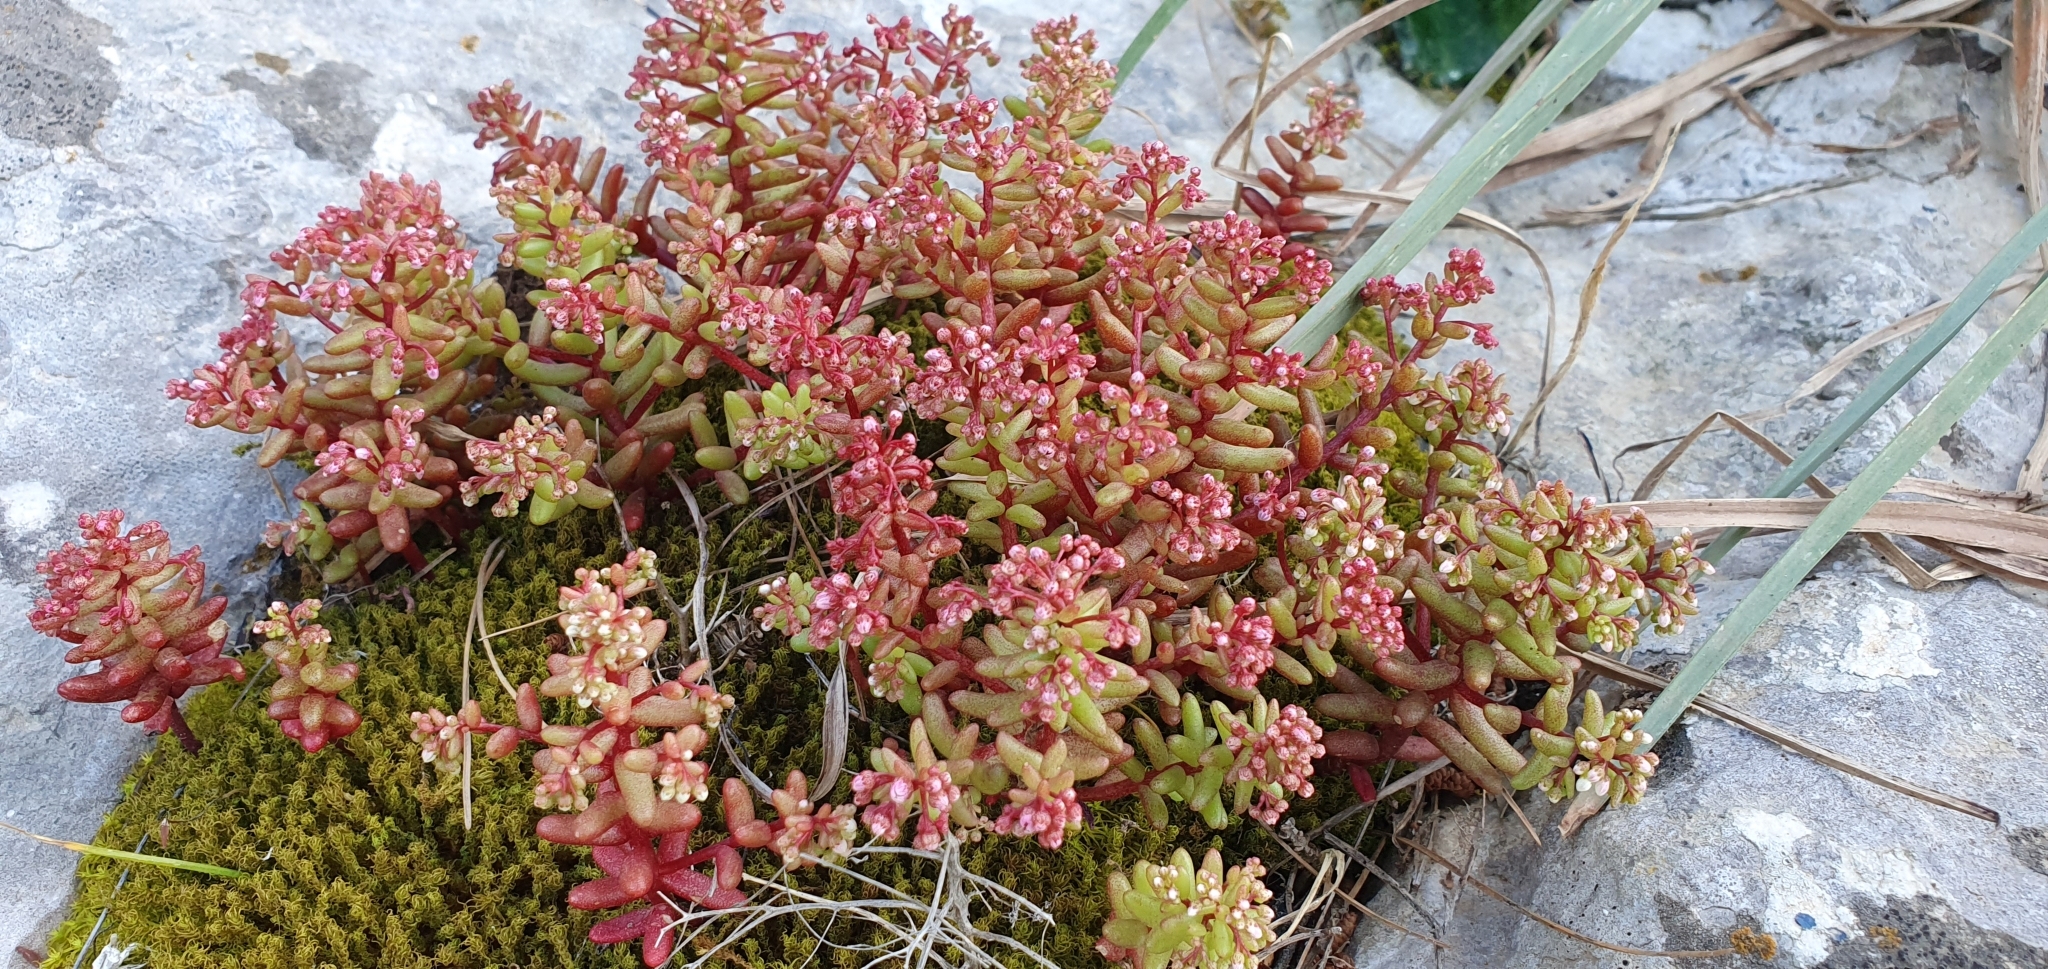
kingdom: Plantae
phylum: Tracheophyta
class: Magnoliopsida
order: Saxifragales
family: Crassulaceae
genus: Sedum
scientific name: Sedum caeruleum
